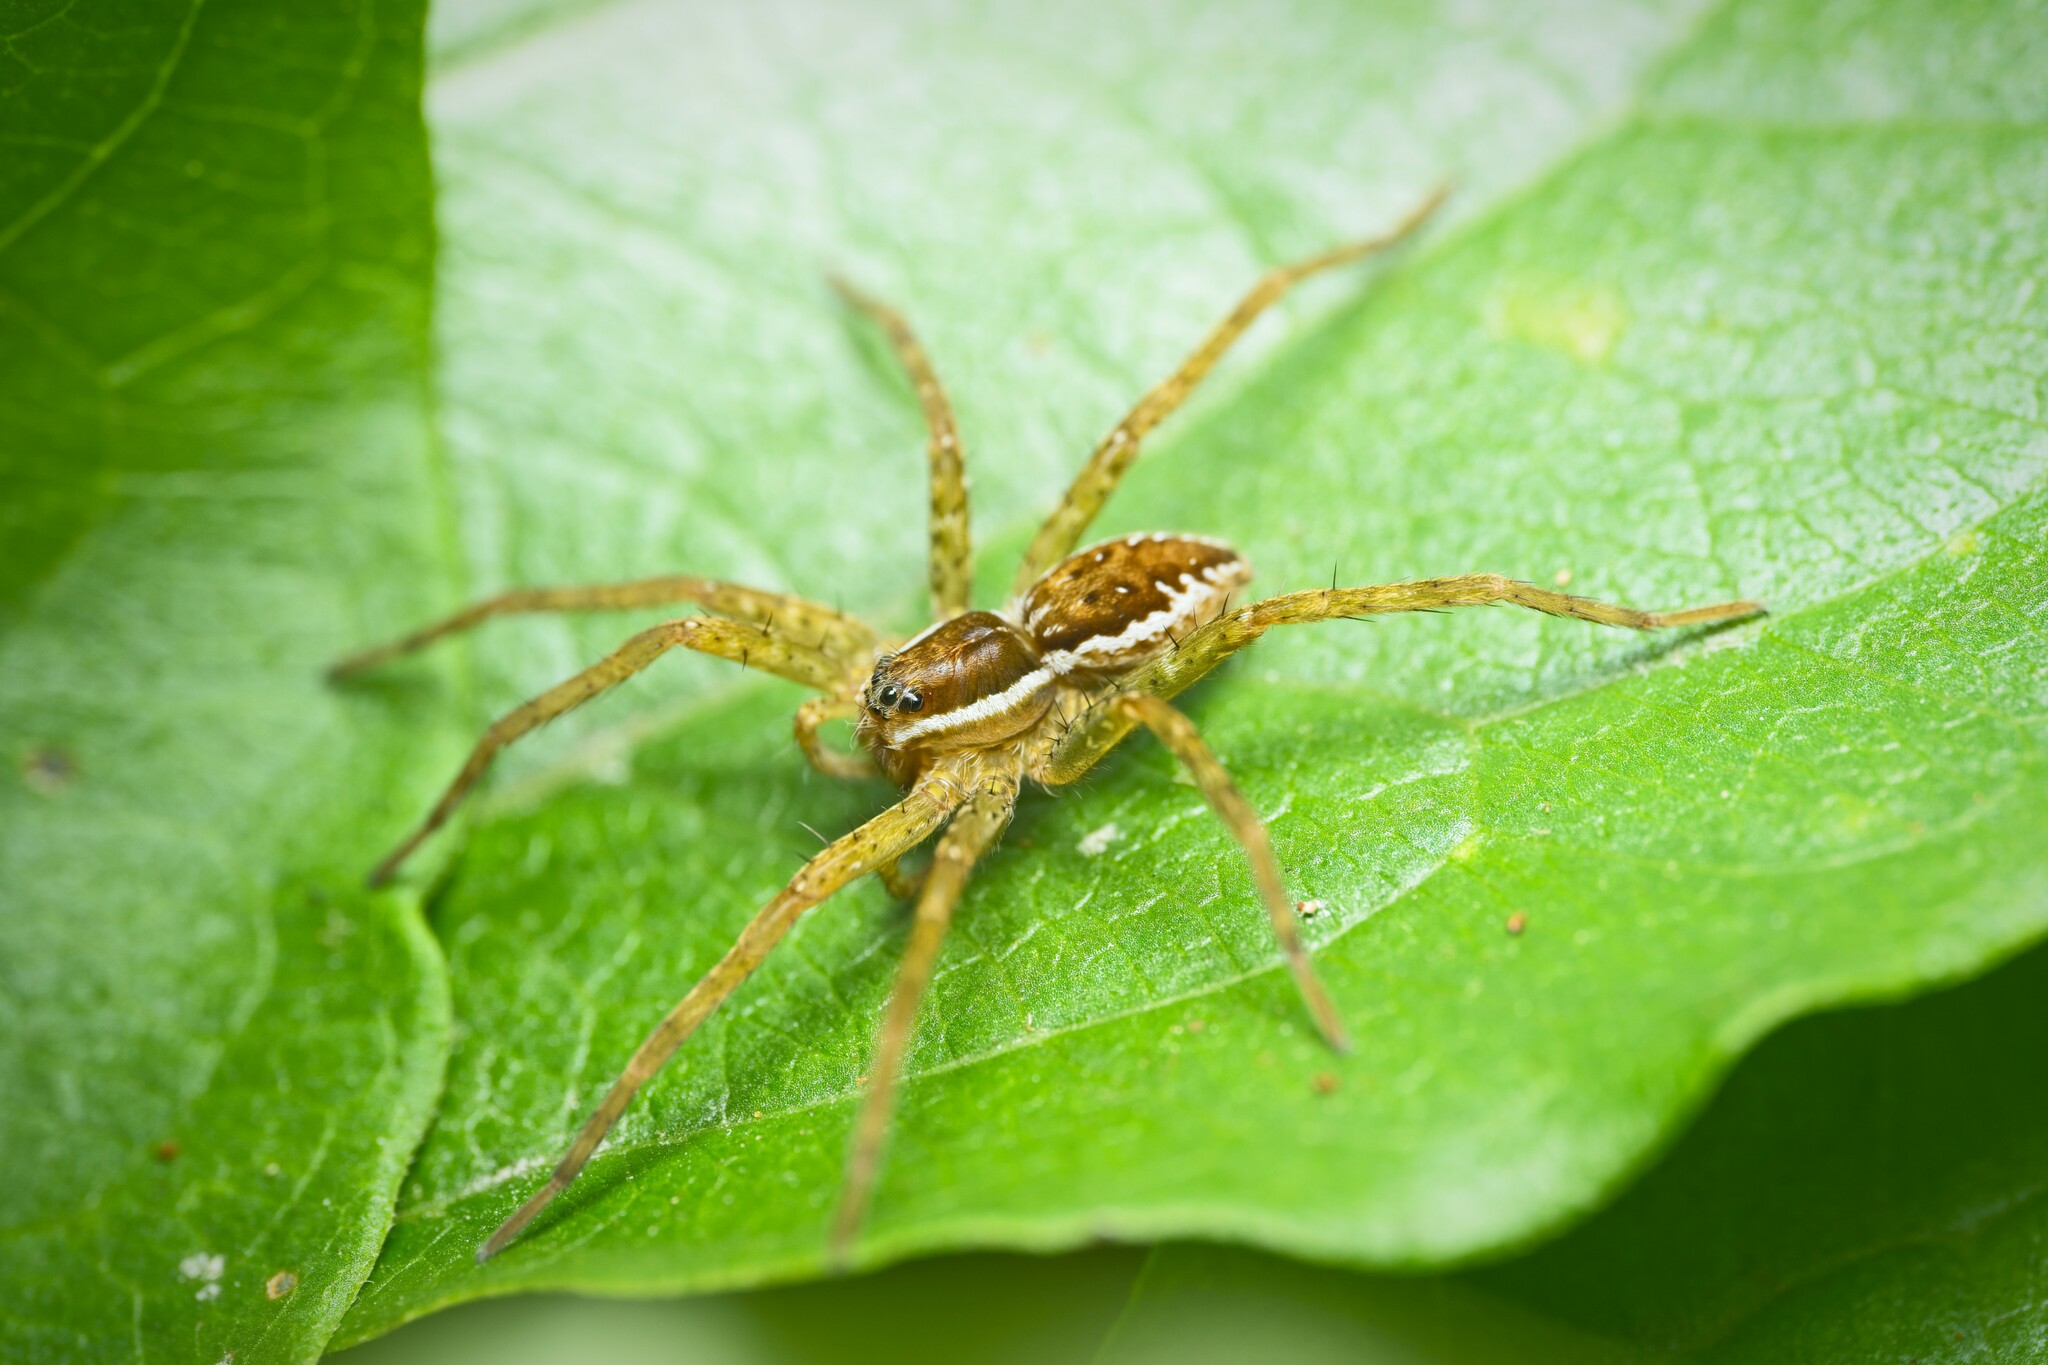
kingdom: Animalia
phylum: Arthropoda
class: Arachnida
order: Araneae
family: Pisauridae
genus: Dolomedes
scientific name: Dolomedes dondalei
